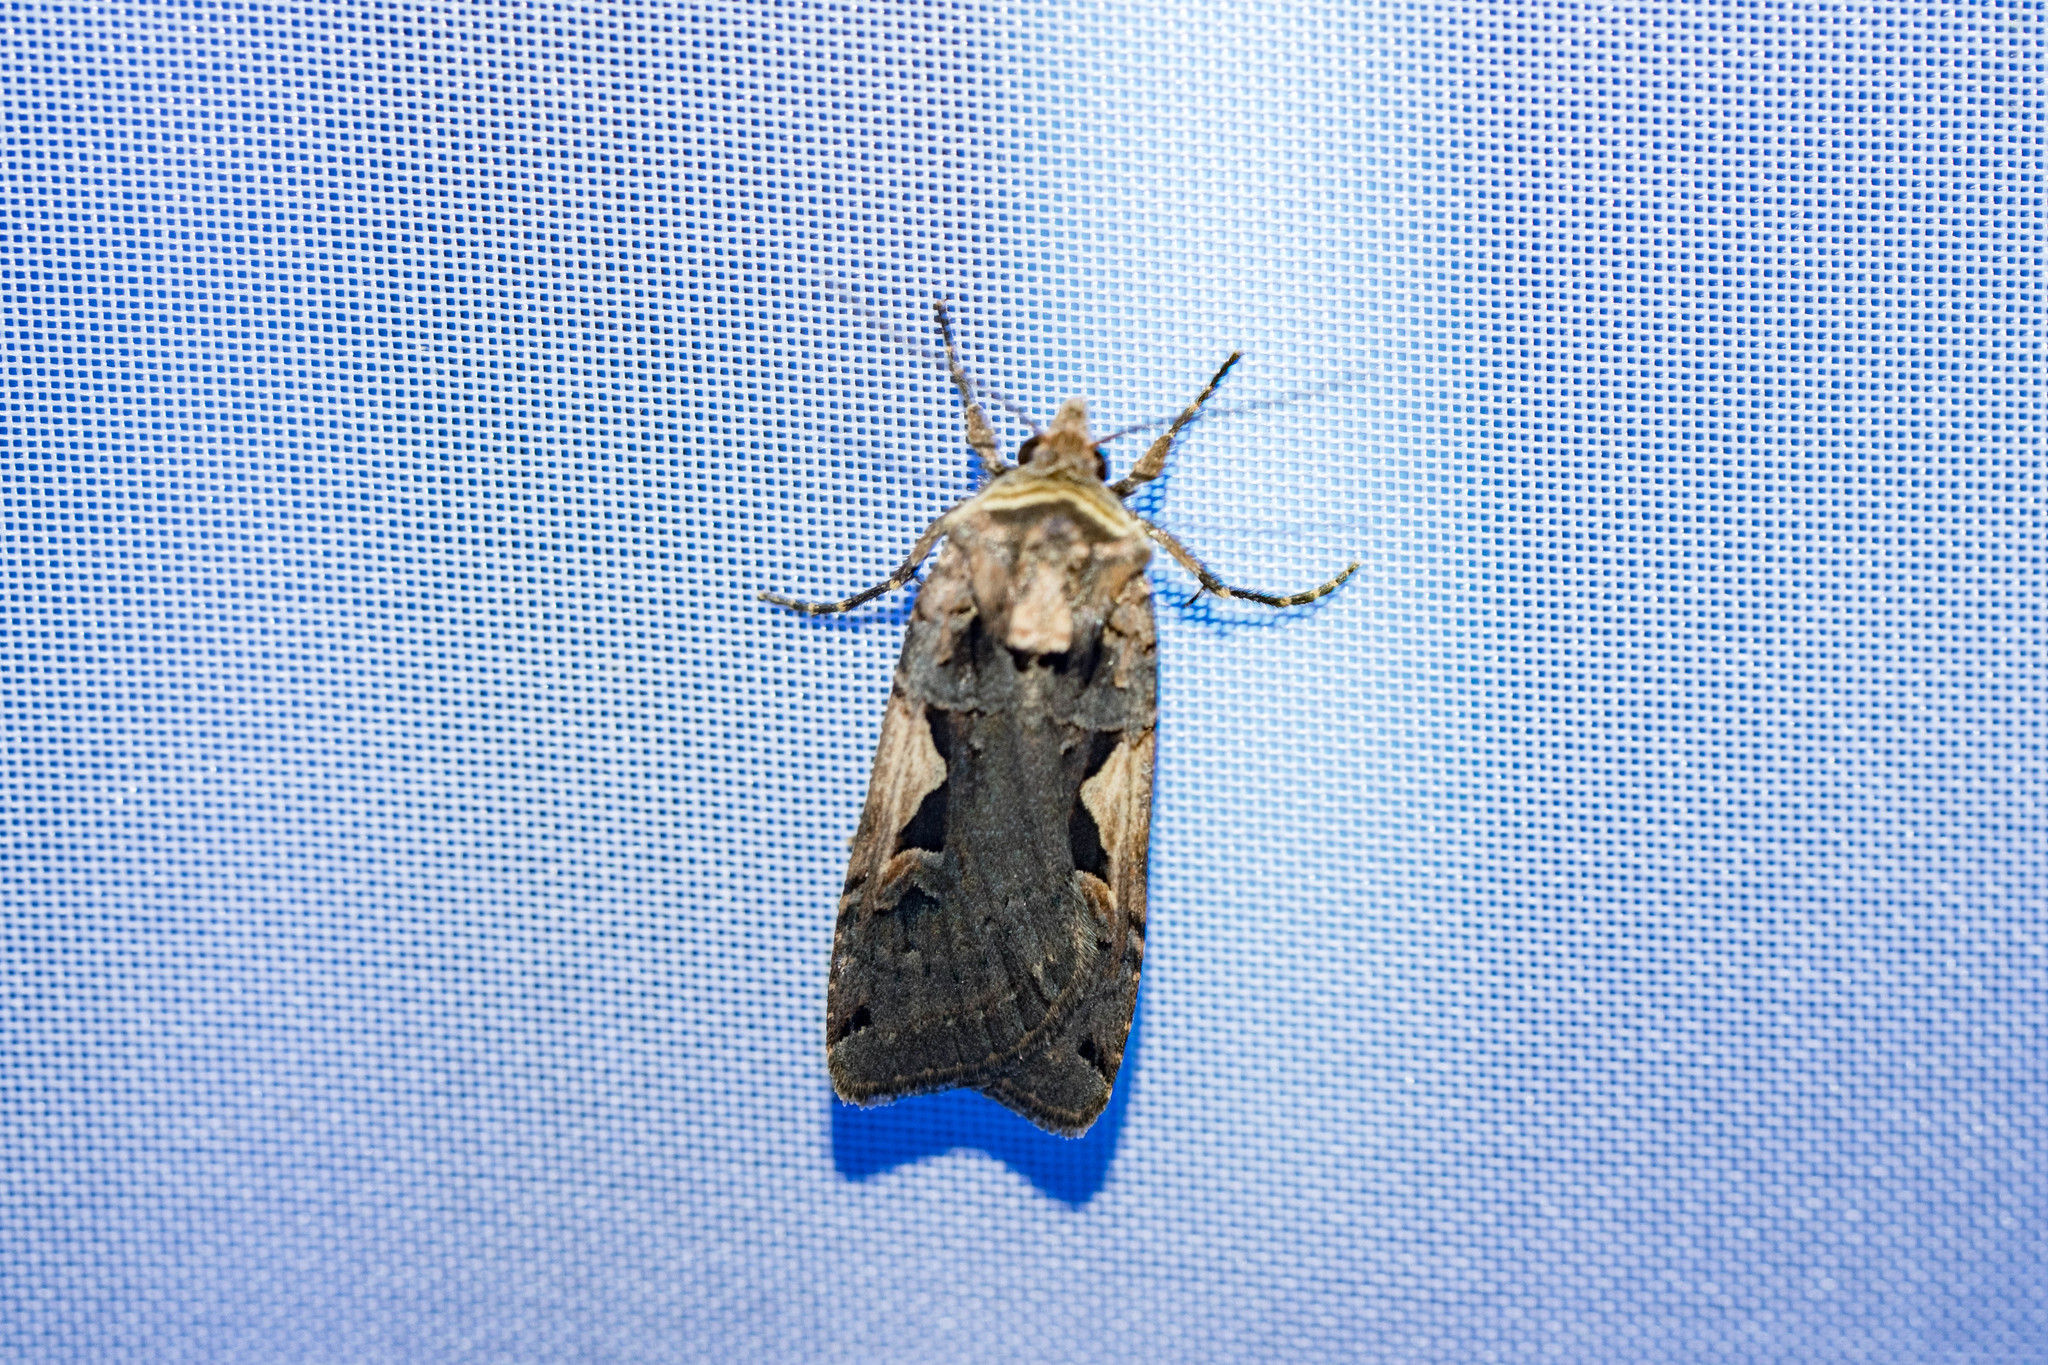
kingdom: Animalia
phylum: Arthropoda
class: Insecta
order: Lepidoptera
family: Noctuidae
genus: Xestia
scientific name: Xestia c-nigrum
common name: Setaceous hebrew character
